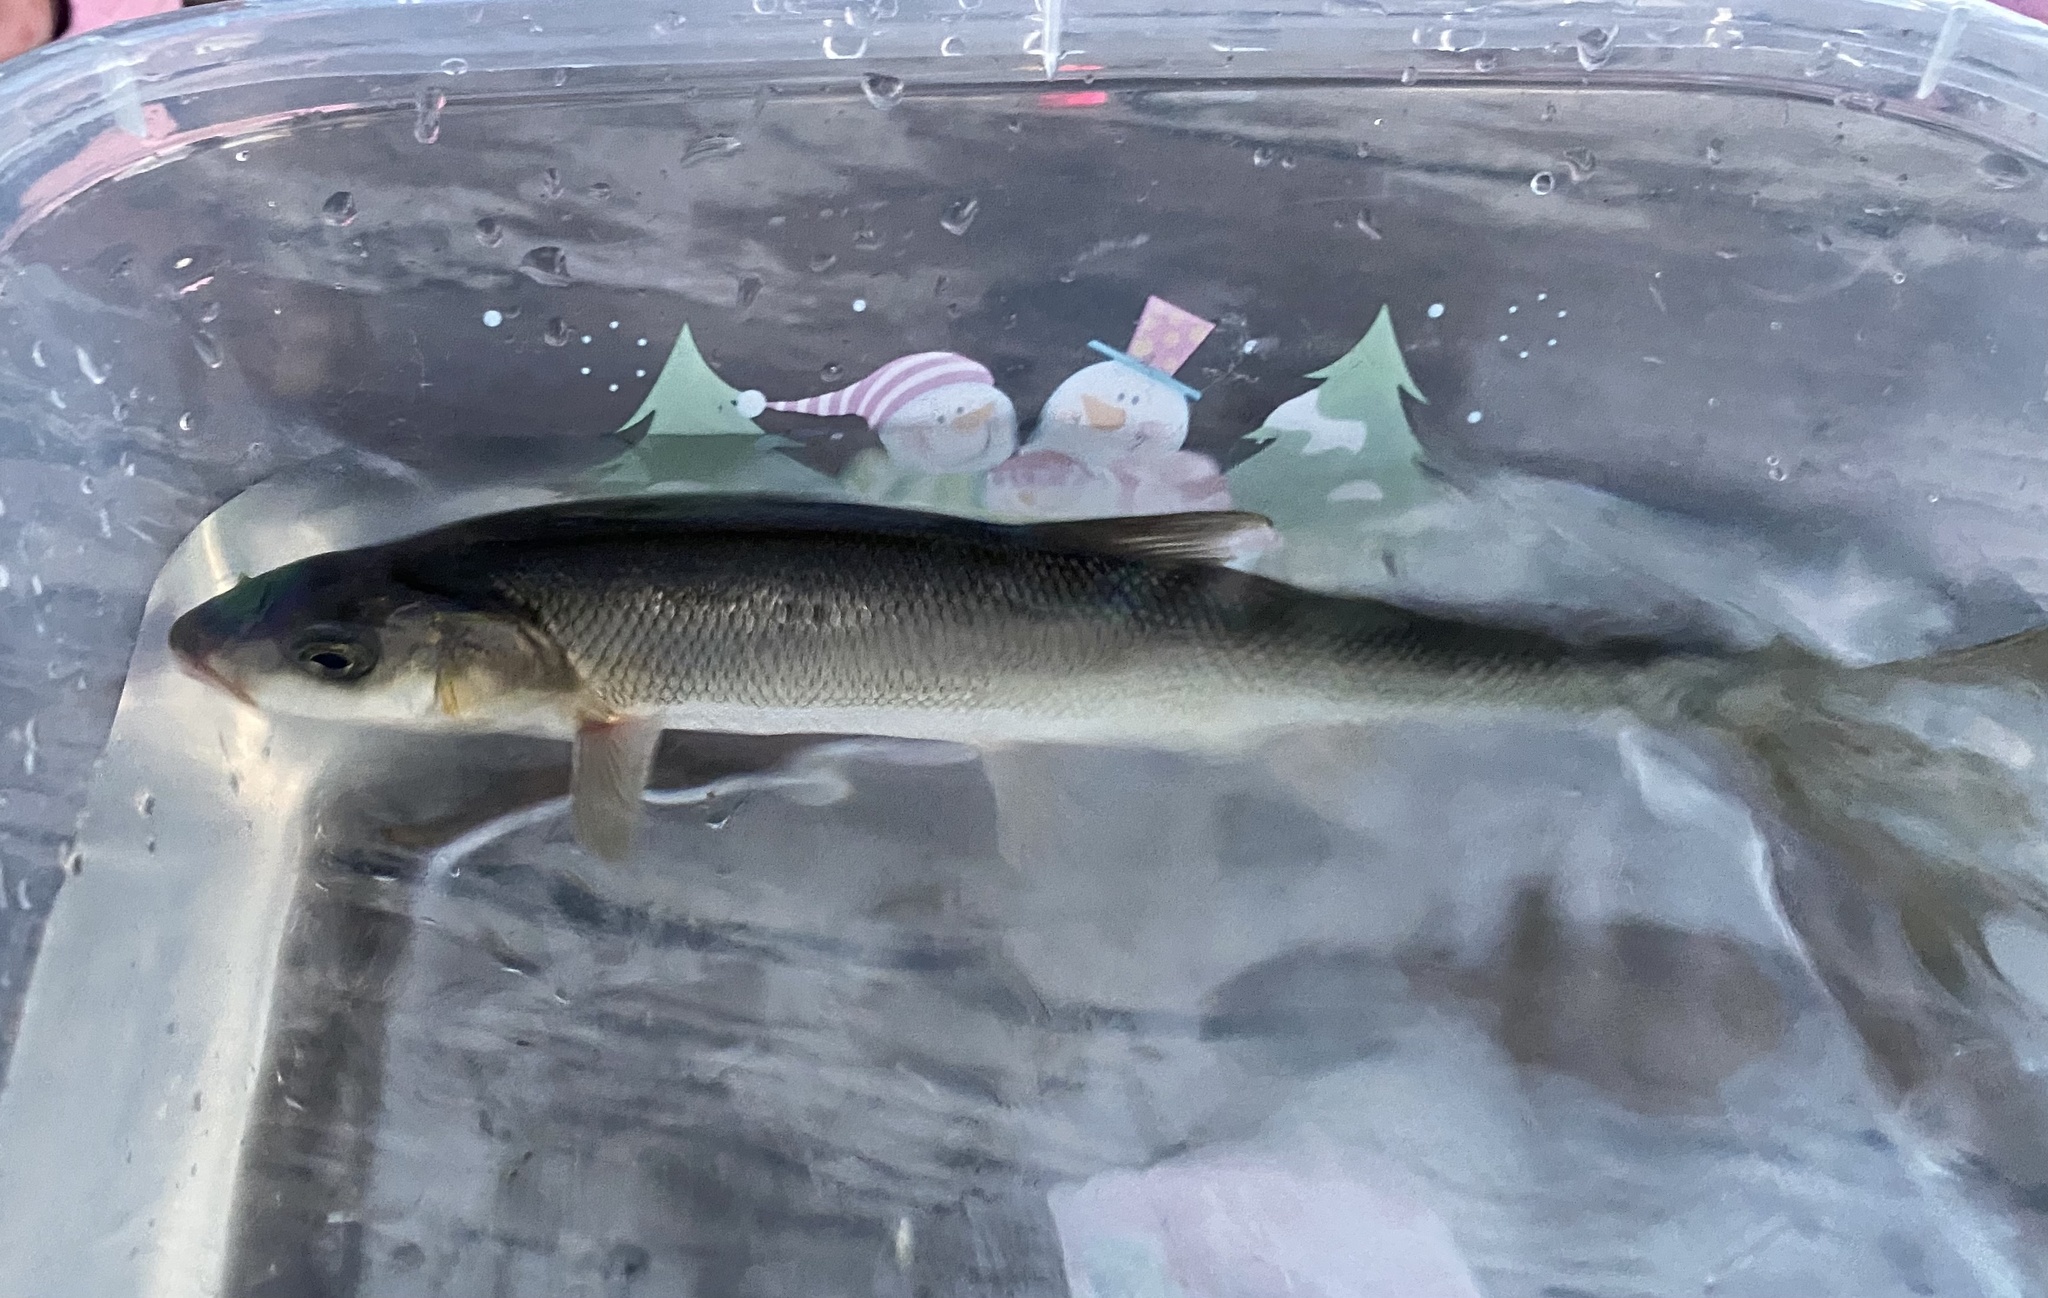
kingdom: Animalia
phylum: Chordata
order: Cypriniformes
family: Cyprinidae
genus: Mylocheilus
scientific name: Mylocheilus caurinus
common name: Peamouth
